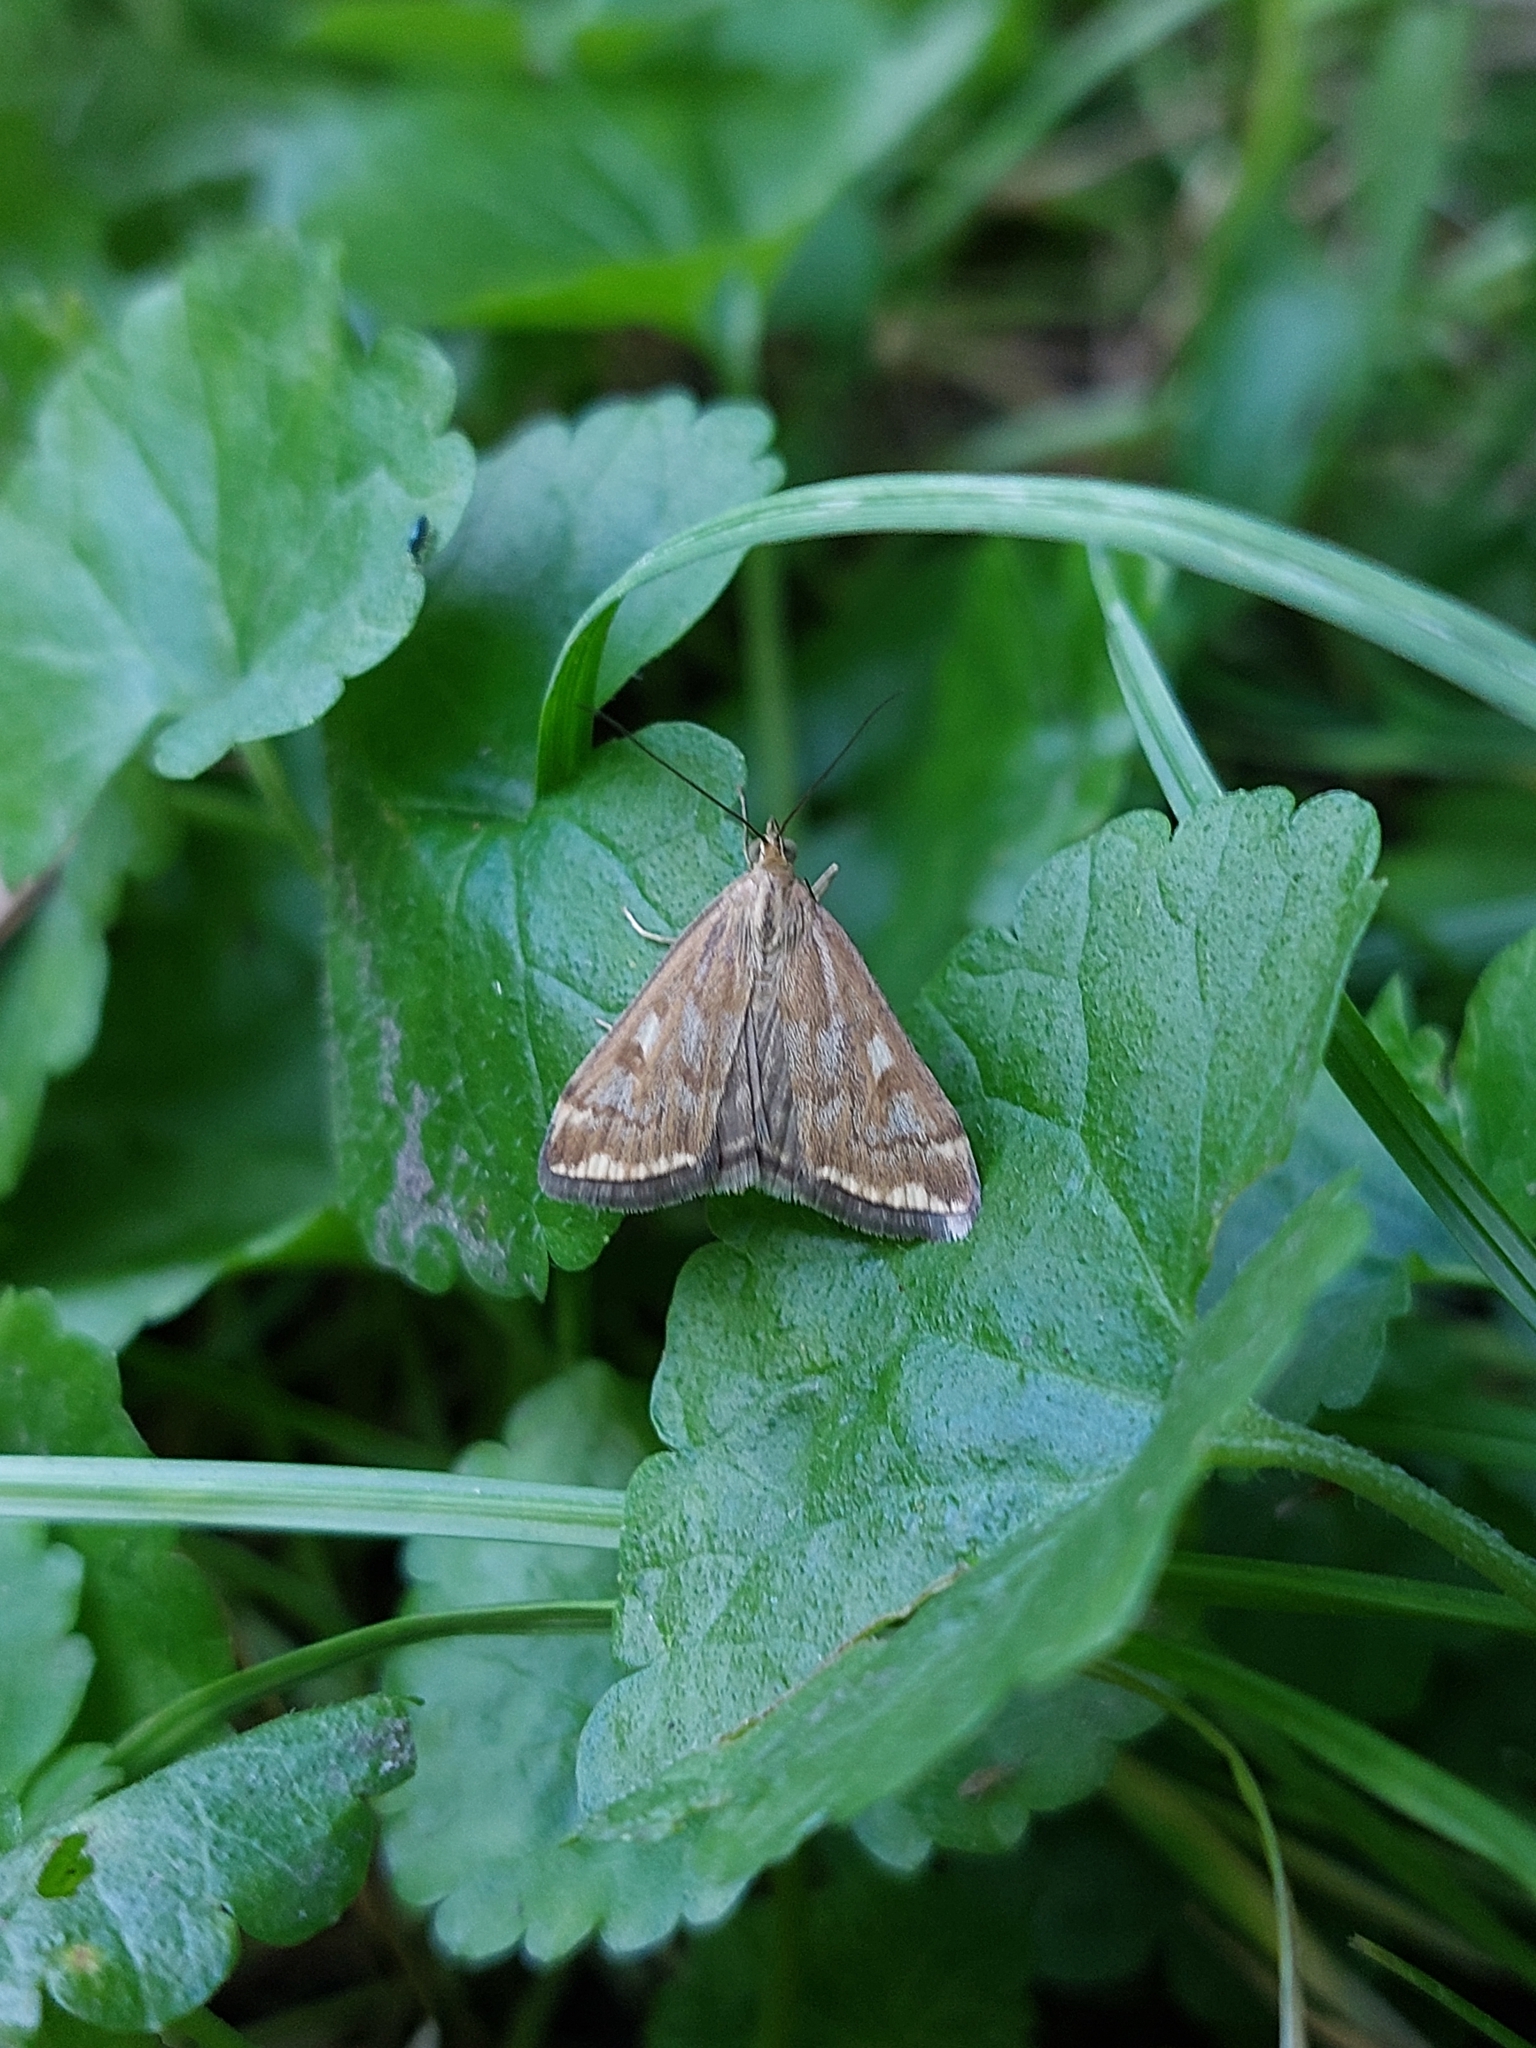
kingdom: Animalia
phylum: Arthropoda
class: Insecta
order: Lepidoptera
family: Crambidae
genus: Loxostege
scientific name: Loxostege sticticalis
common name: Crambid moth
